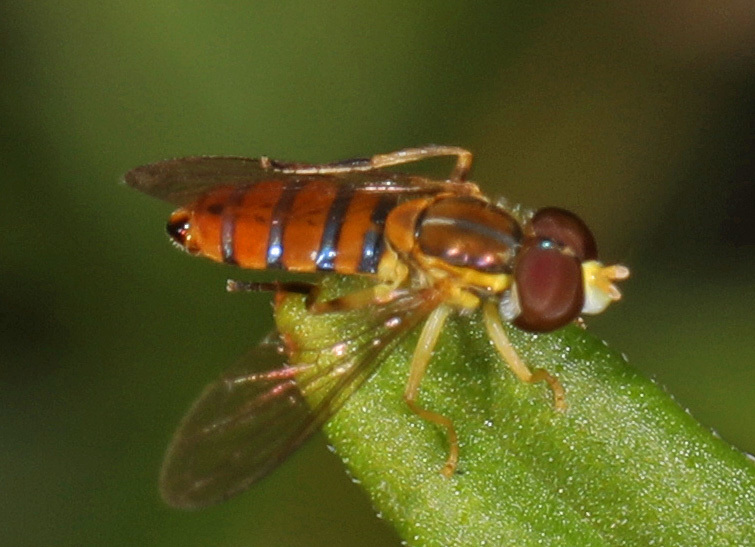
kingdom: Animalia
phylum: Arthropoda
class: Insecta
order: Diptera
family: Syrphidae
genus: Toxomerus
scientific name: Toxomerus corbis
